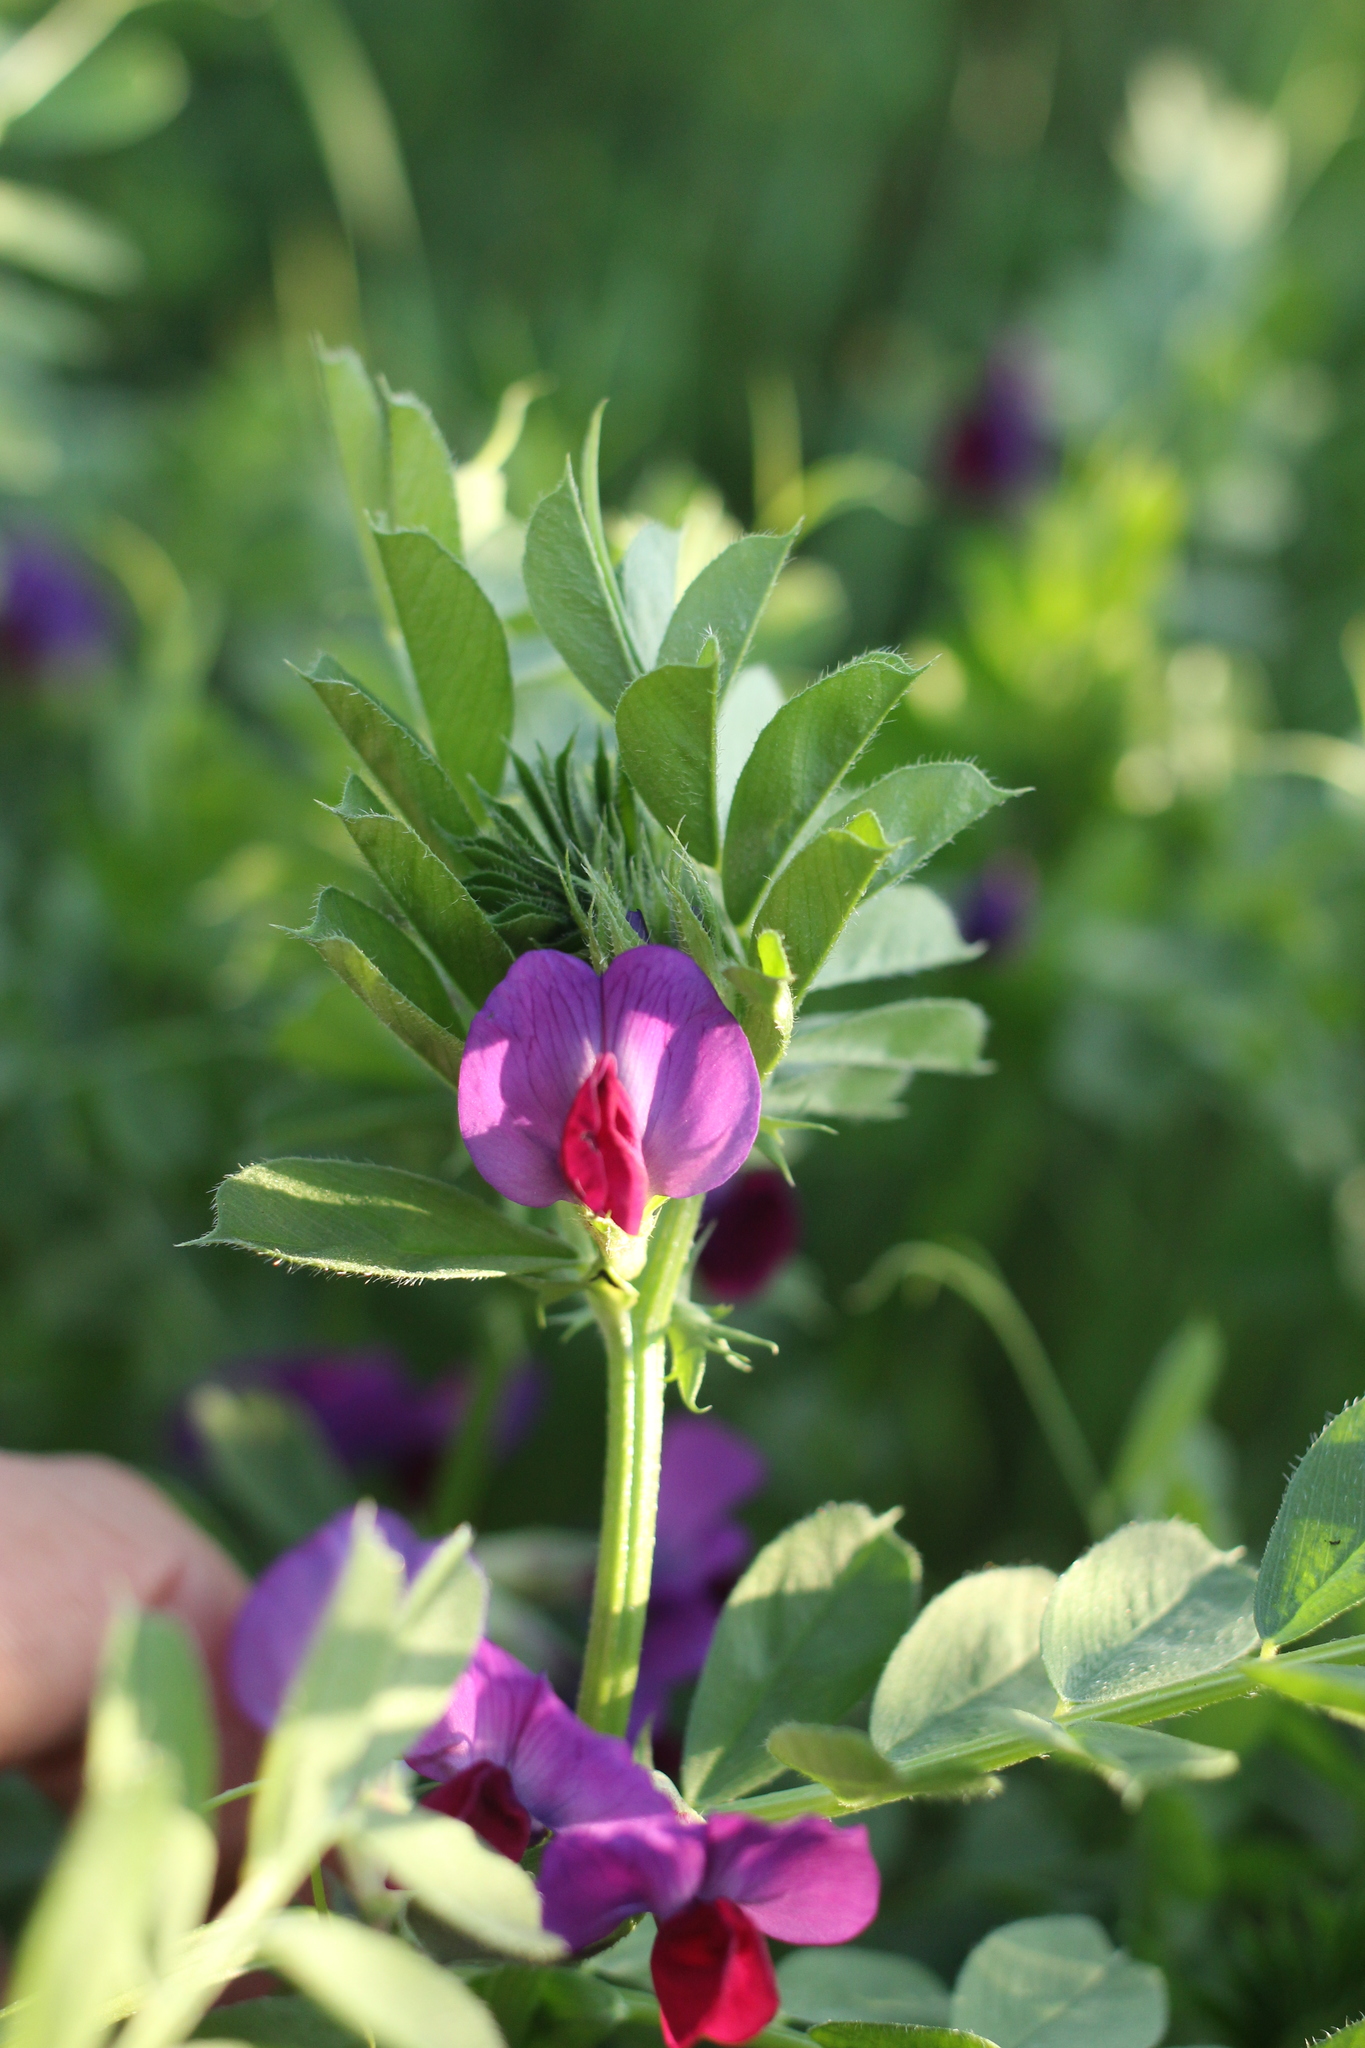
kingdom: Plantae
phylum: Tracheophyta
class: Magnoliopsida
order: Fabales
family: Fabaceae
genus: Vicia
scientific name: Vicia sativa
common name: Garden vetch
